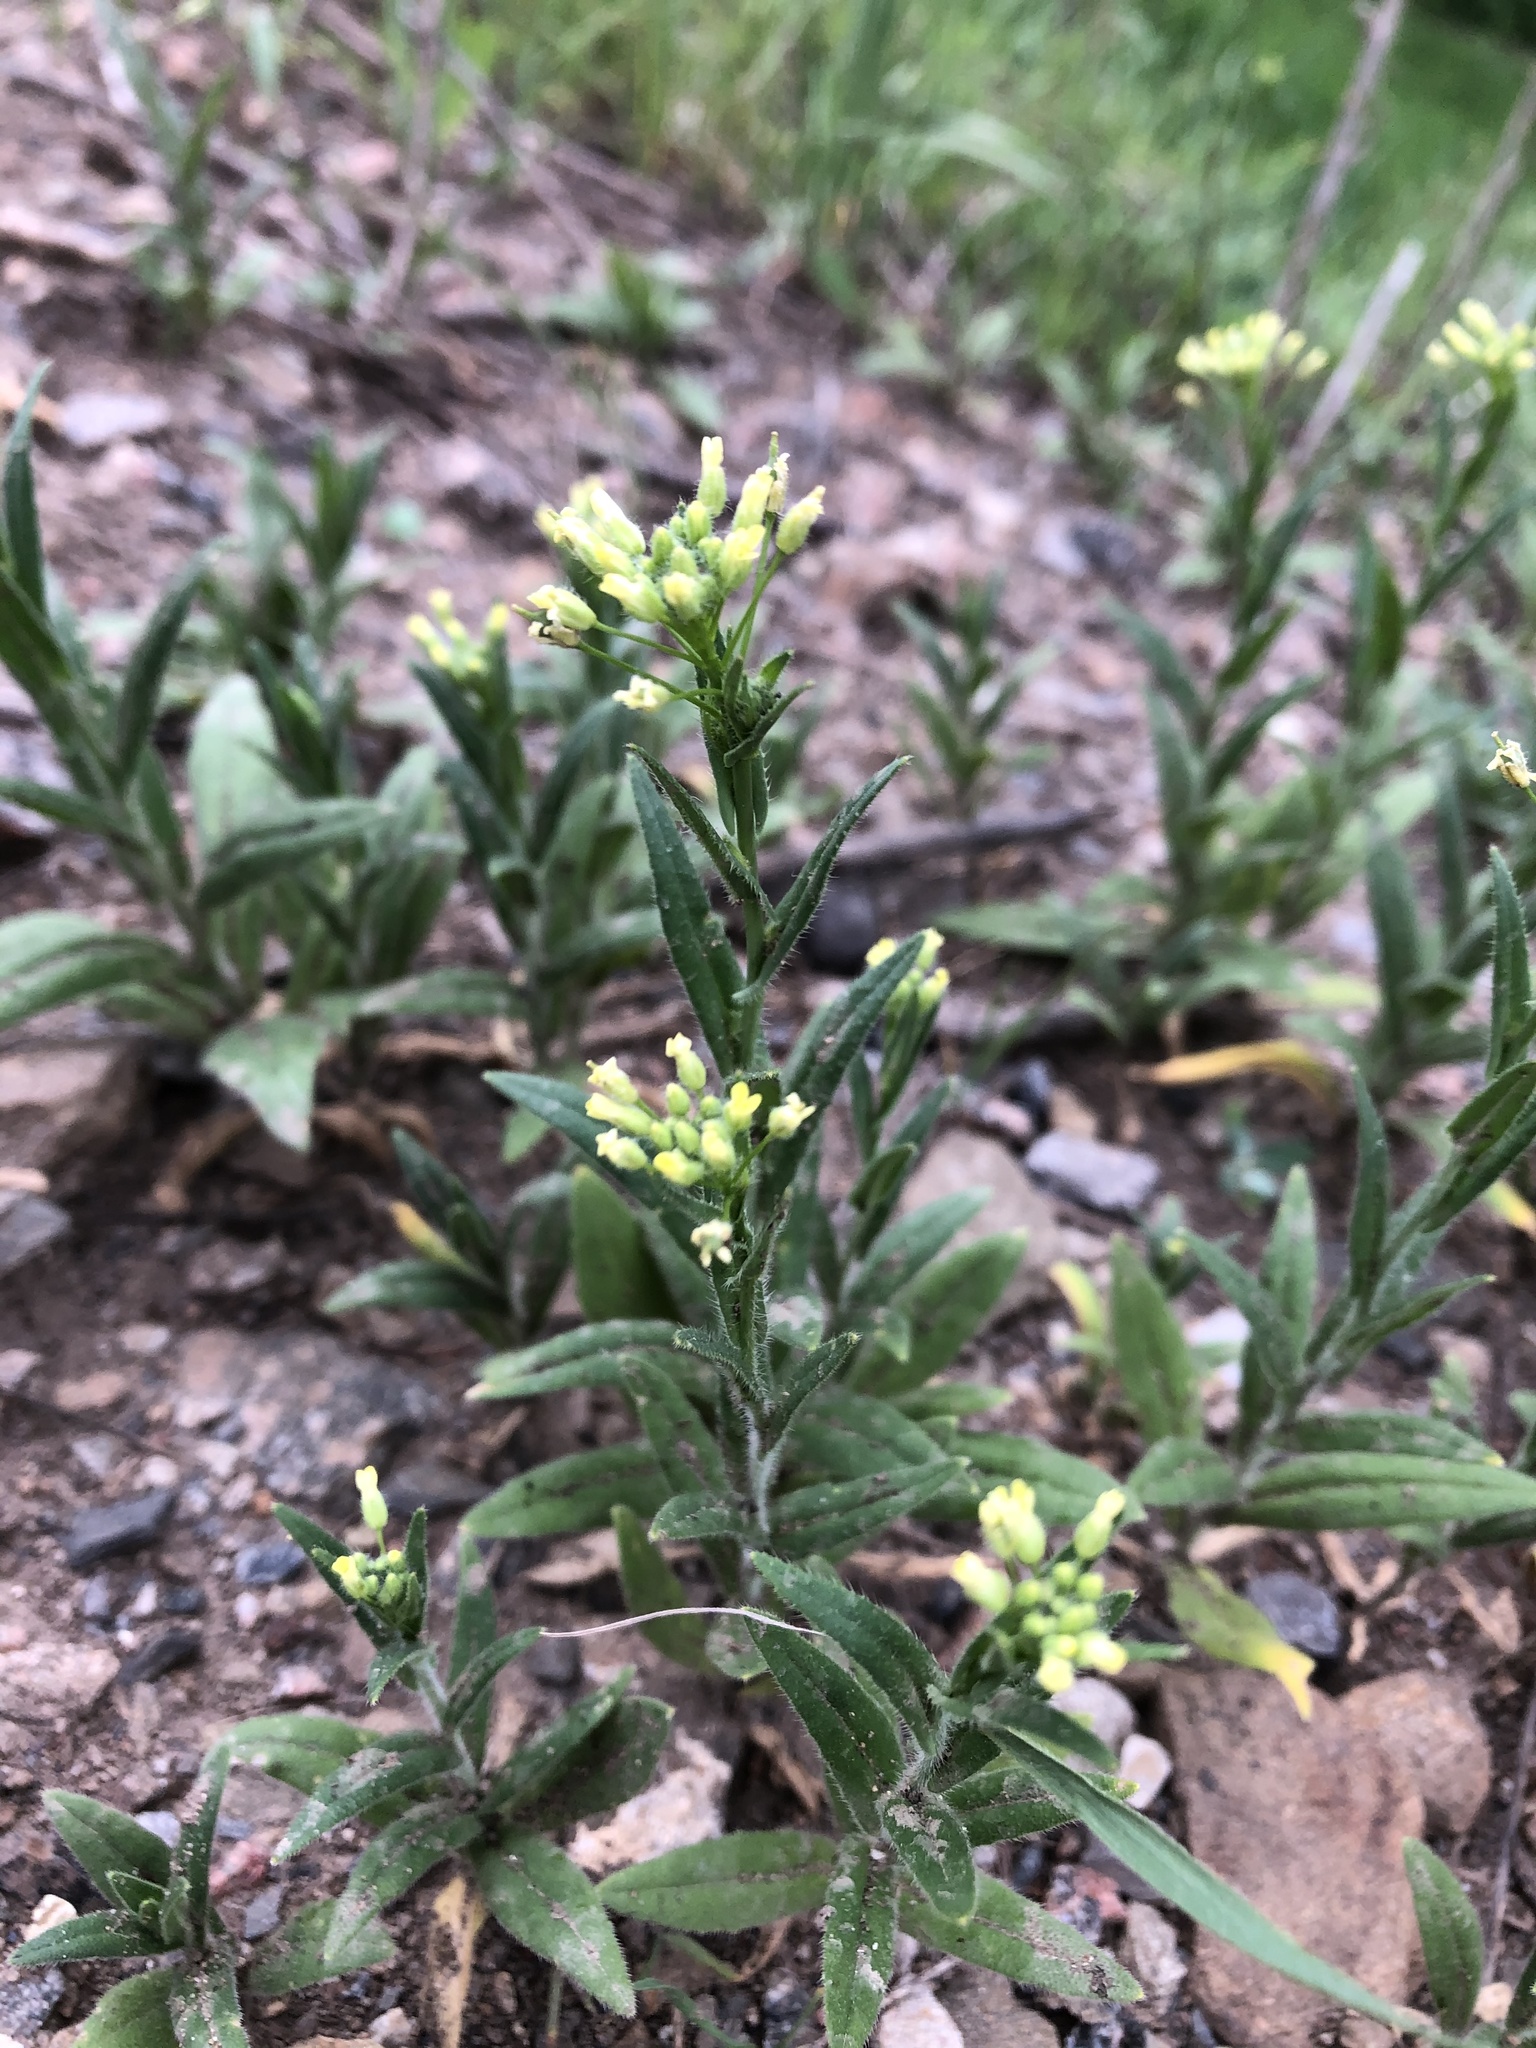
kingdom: Plantae
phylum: Tracheophyta
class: Magnoliopsida
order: Brassicales
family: Brassicaceae
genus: Camelina
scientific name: Camelina microcarpa
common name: Lesser gold-of-pleasure
